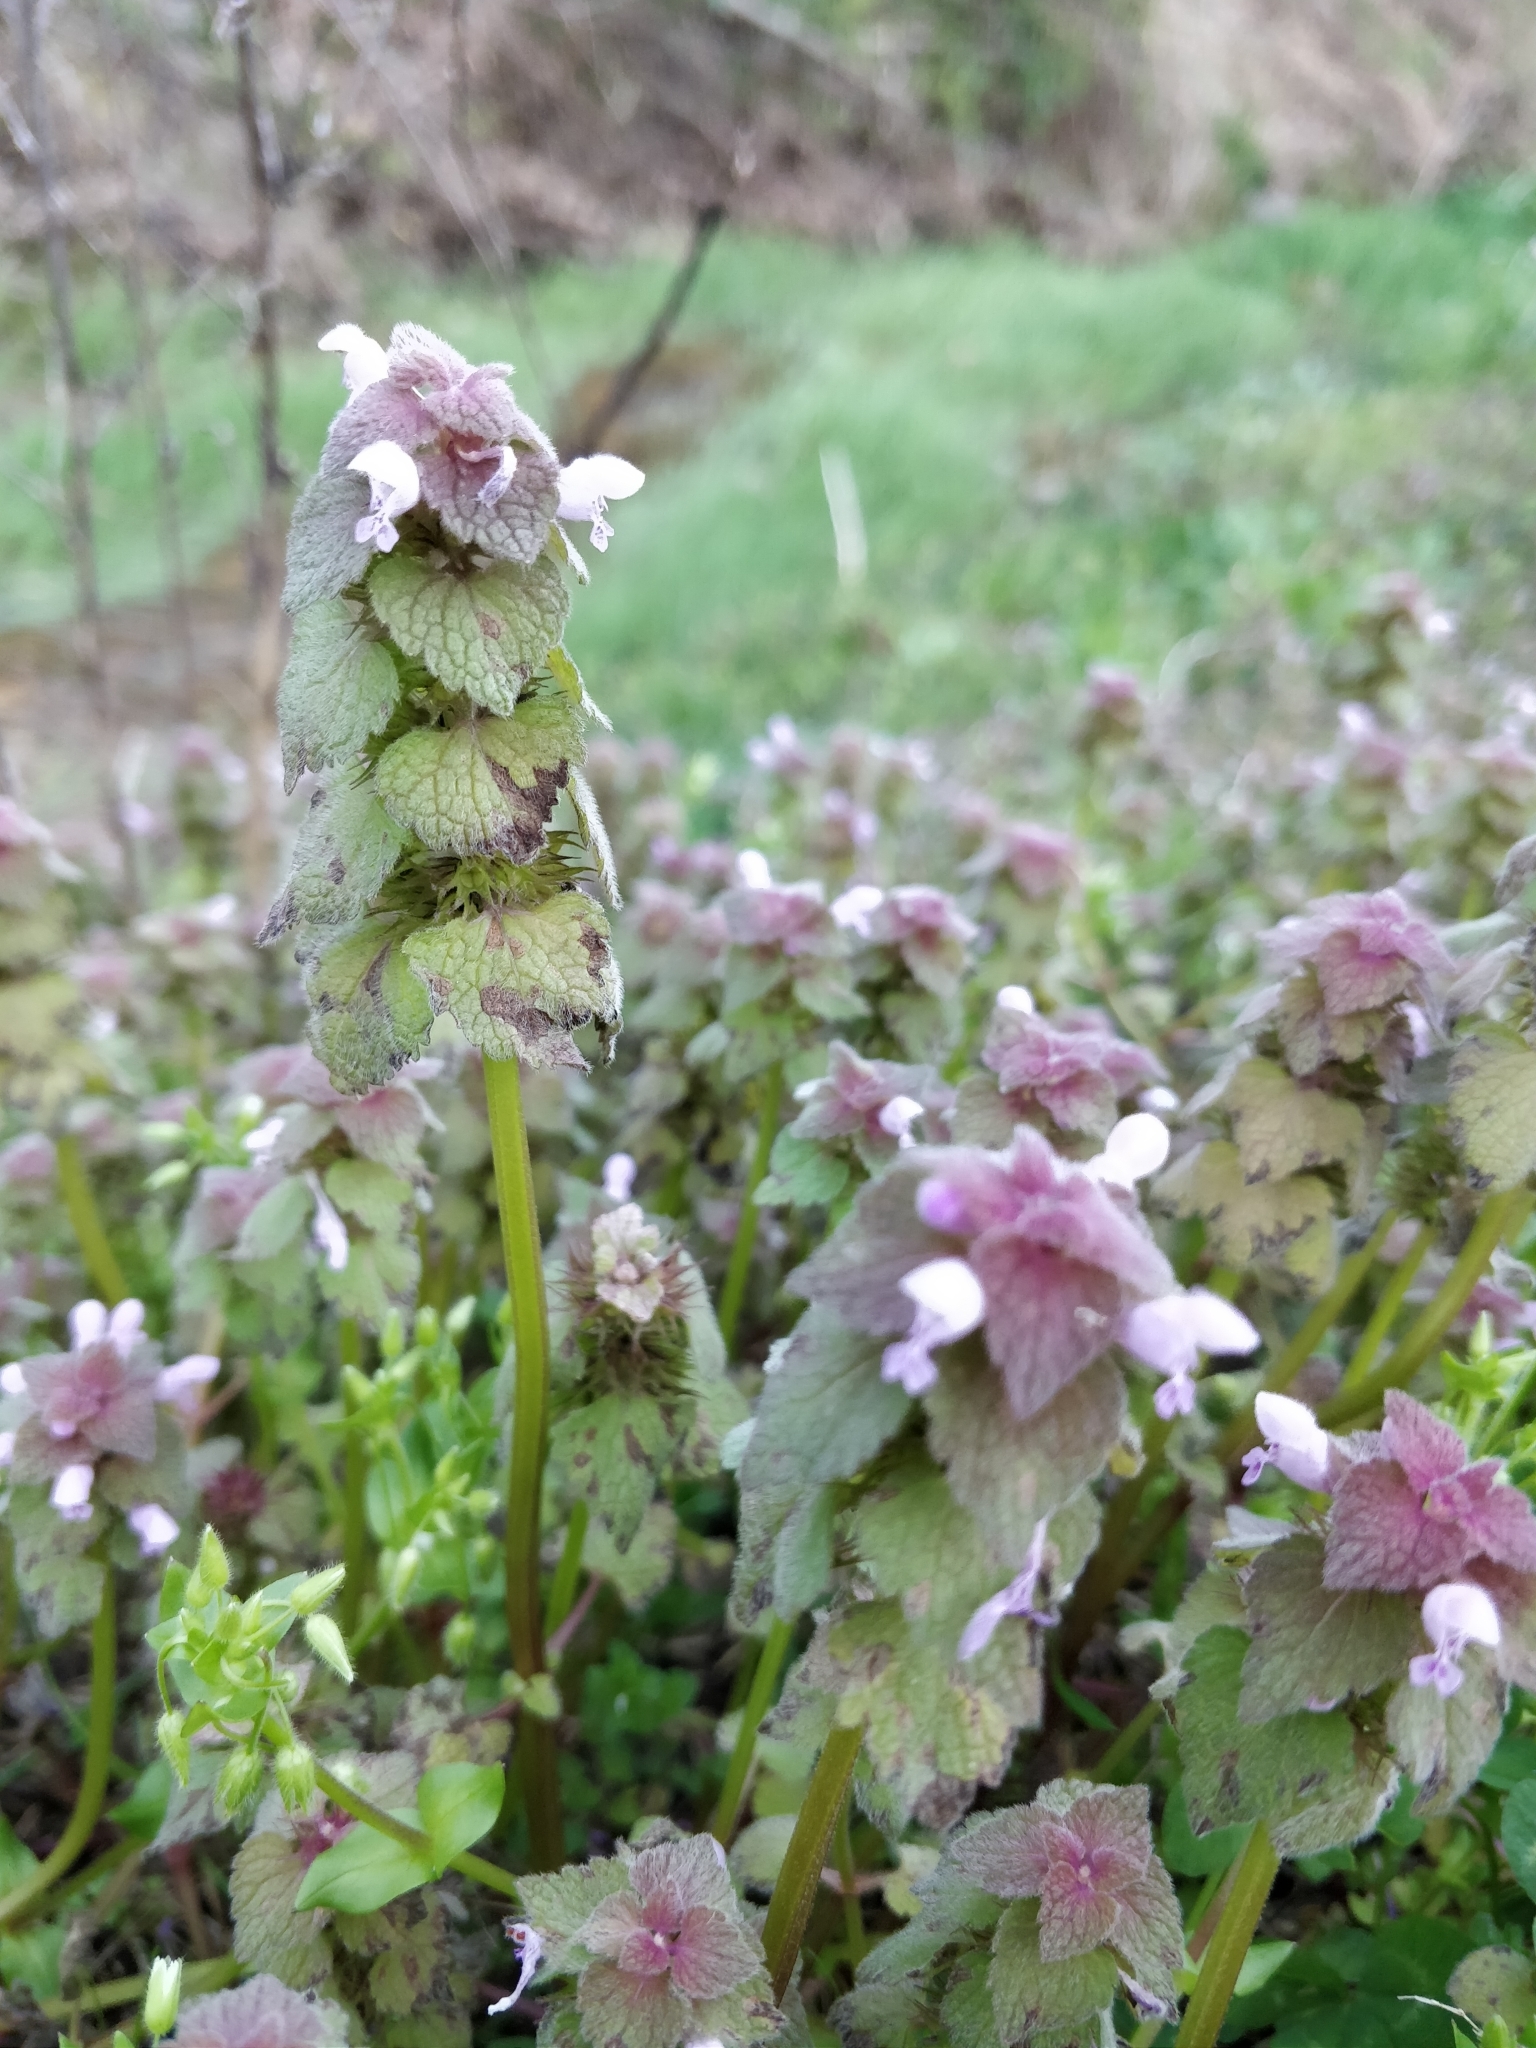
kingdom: Plantae
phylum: Tracheophyta
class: Magnoliopsida
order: Lamiales
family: Lamiaceae
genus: Lamium
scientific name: Lamium purpureum
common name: Red dead-nettle
